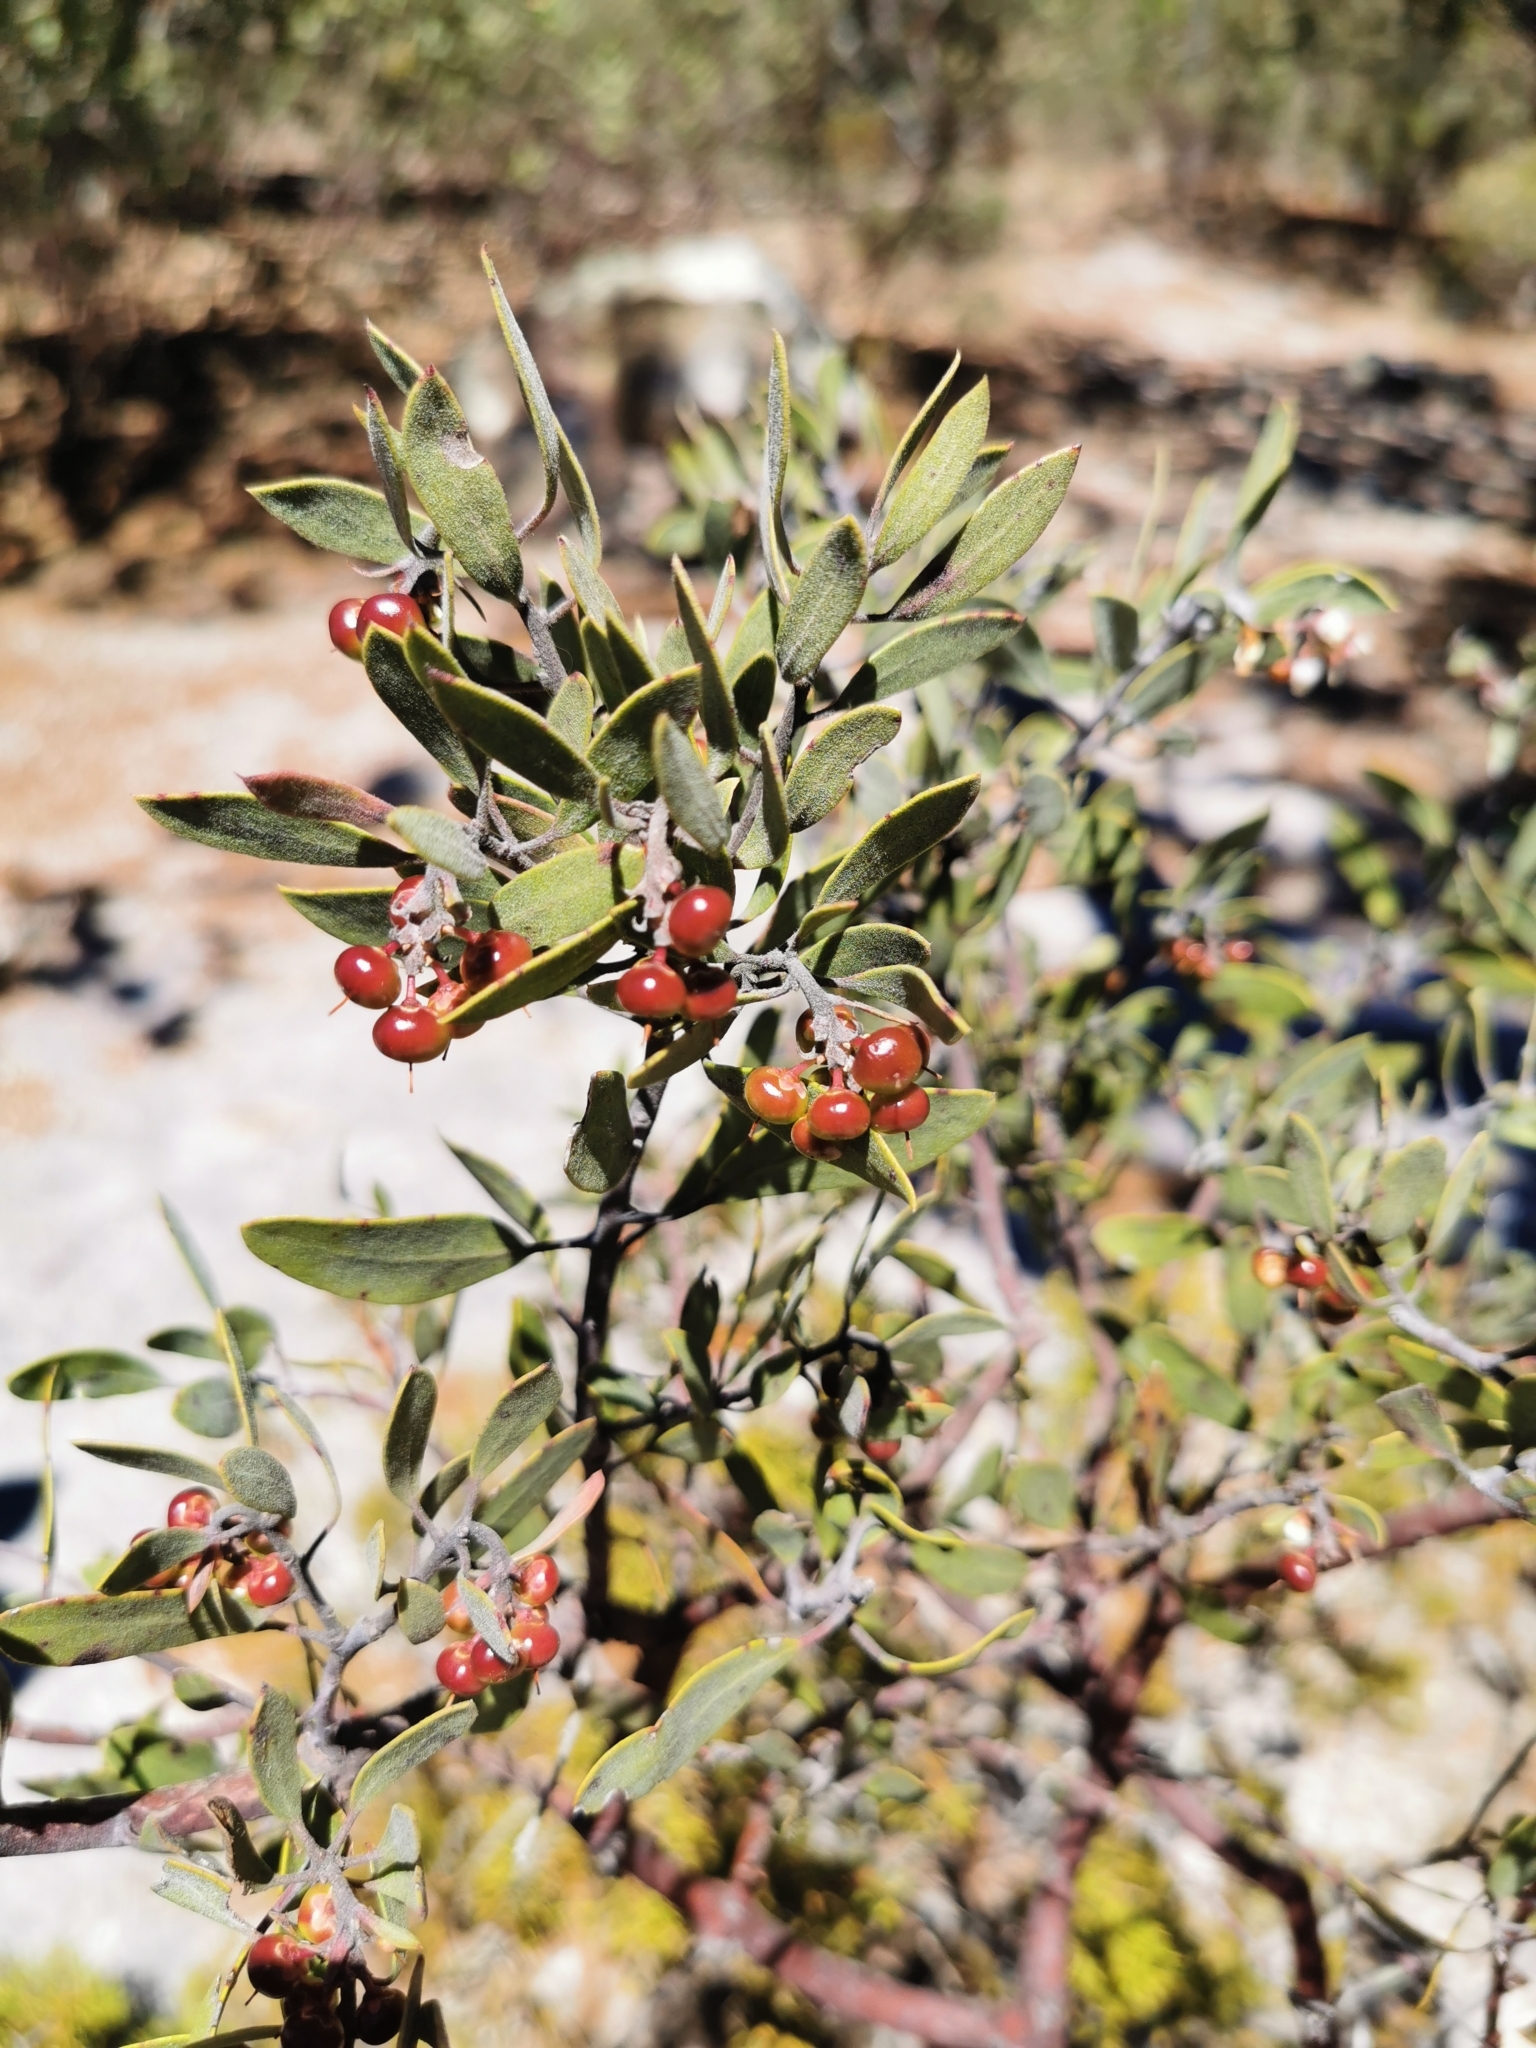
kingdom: Plantae
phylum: Tracheophyta
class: Magnoliopsida
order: Ericales
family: Ericaceae
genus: Arctostaphylos
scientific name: Arctostaphylos pungens
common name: Mexican manzanita
